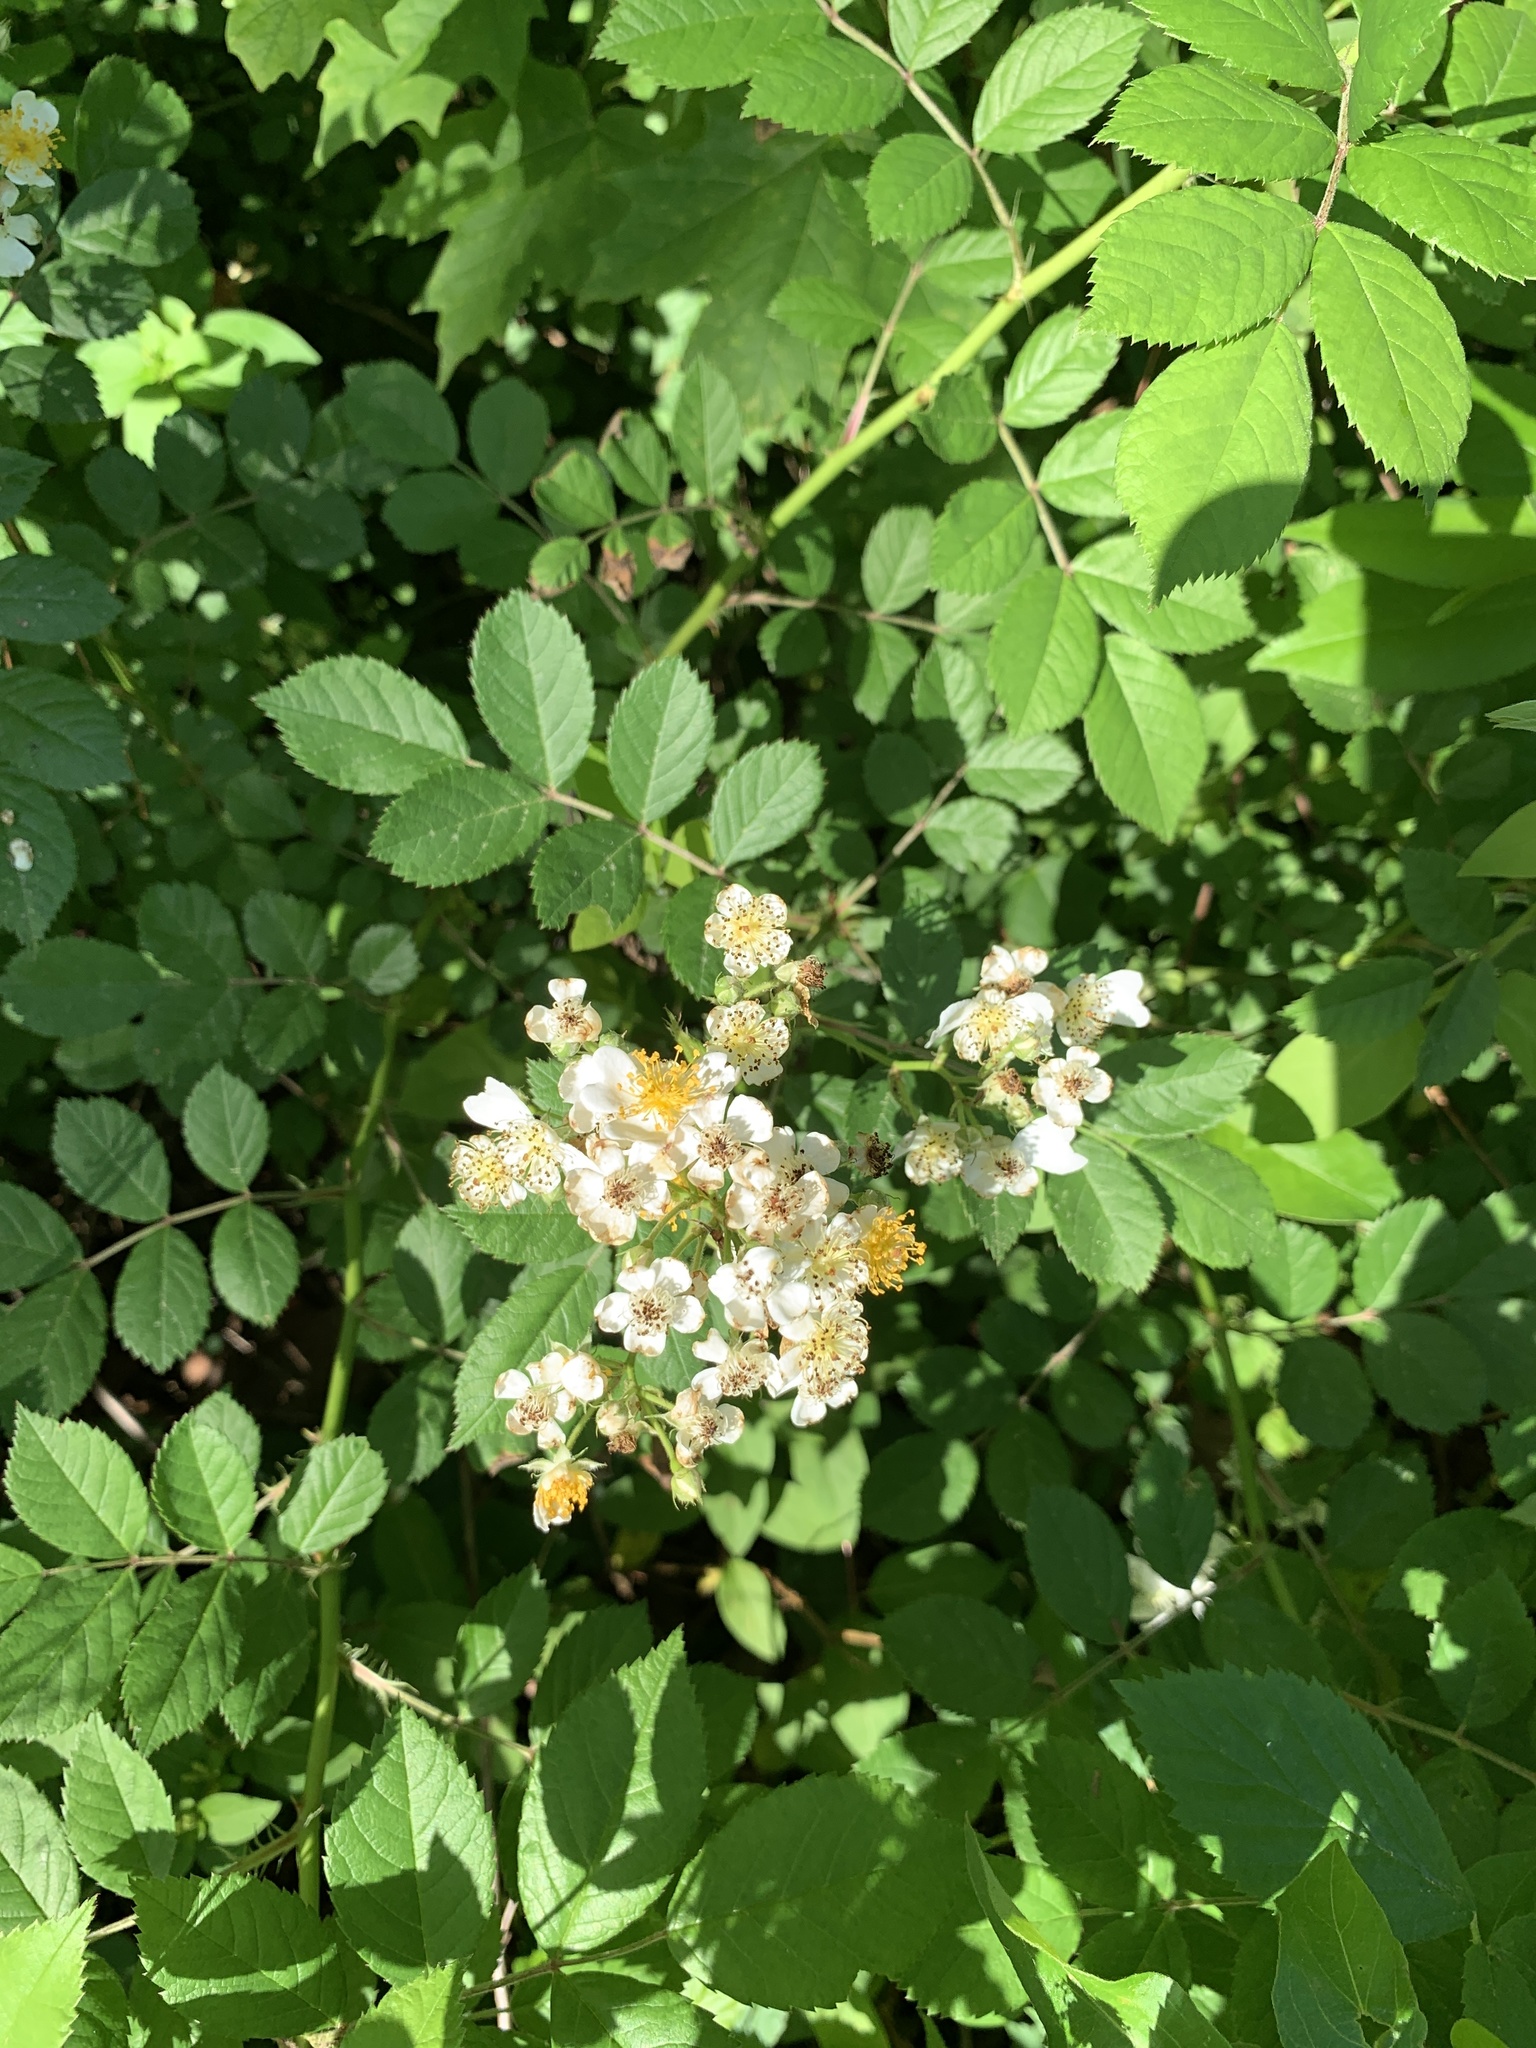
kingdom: Plantae
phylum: Tracheophyta
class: Magnoliopsida
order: Rosales
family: Rosaceae
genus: Rosa
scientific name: Rosa multiflora
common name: Multiflora rose
